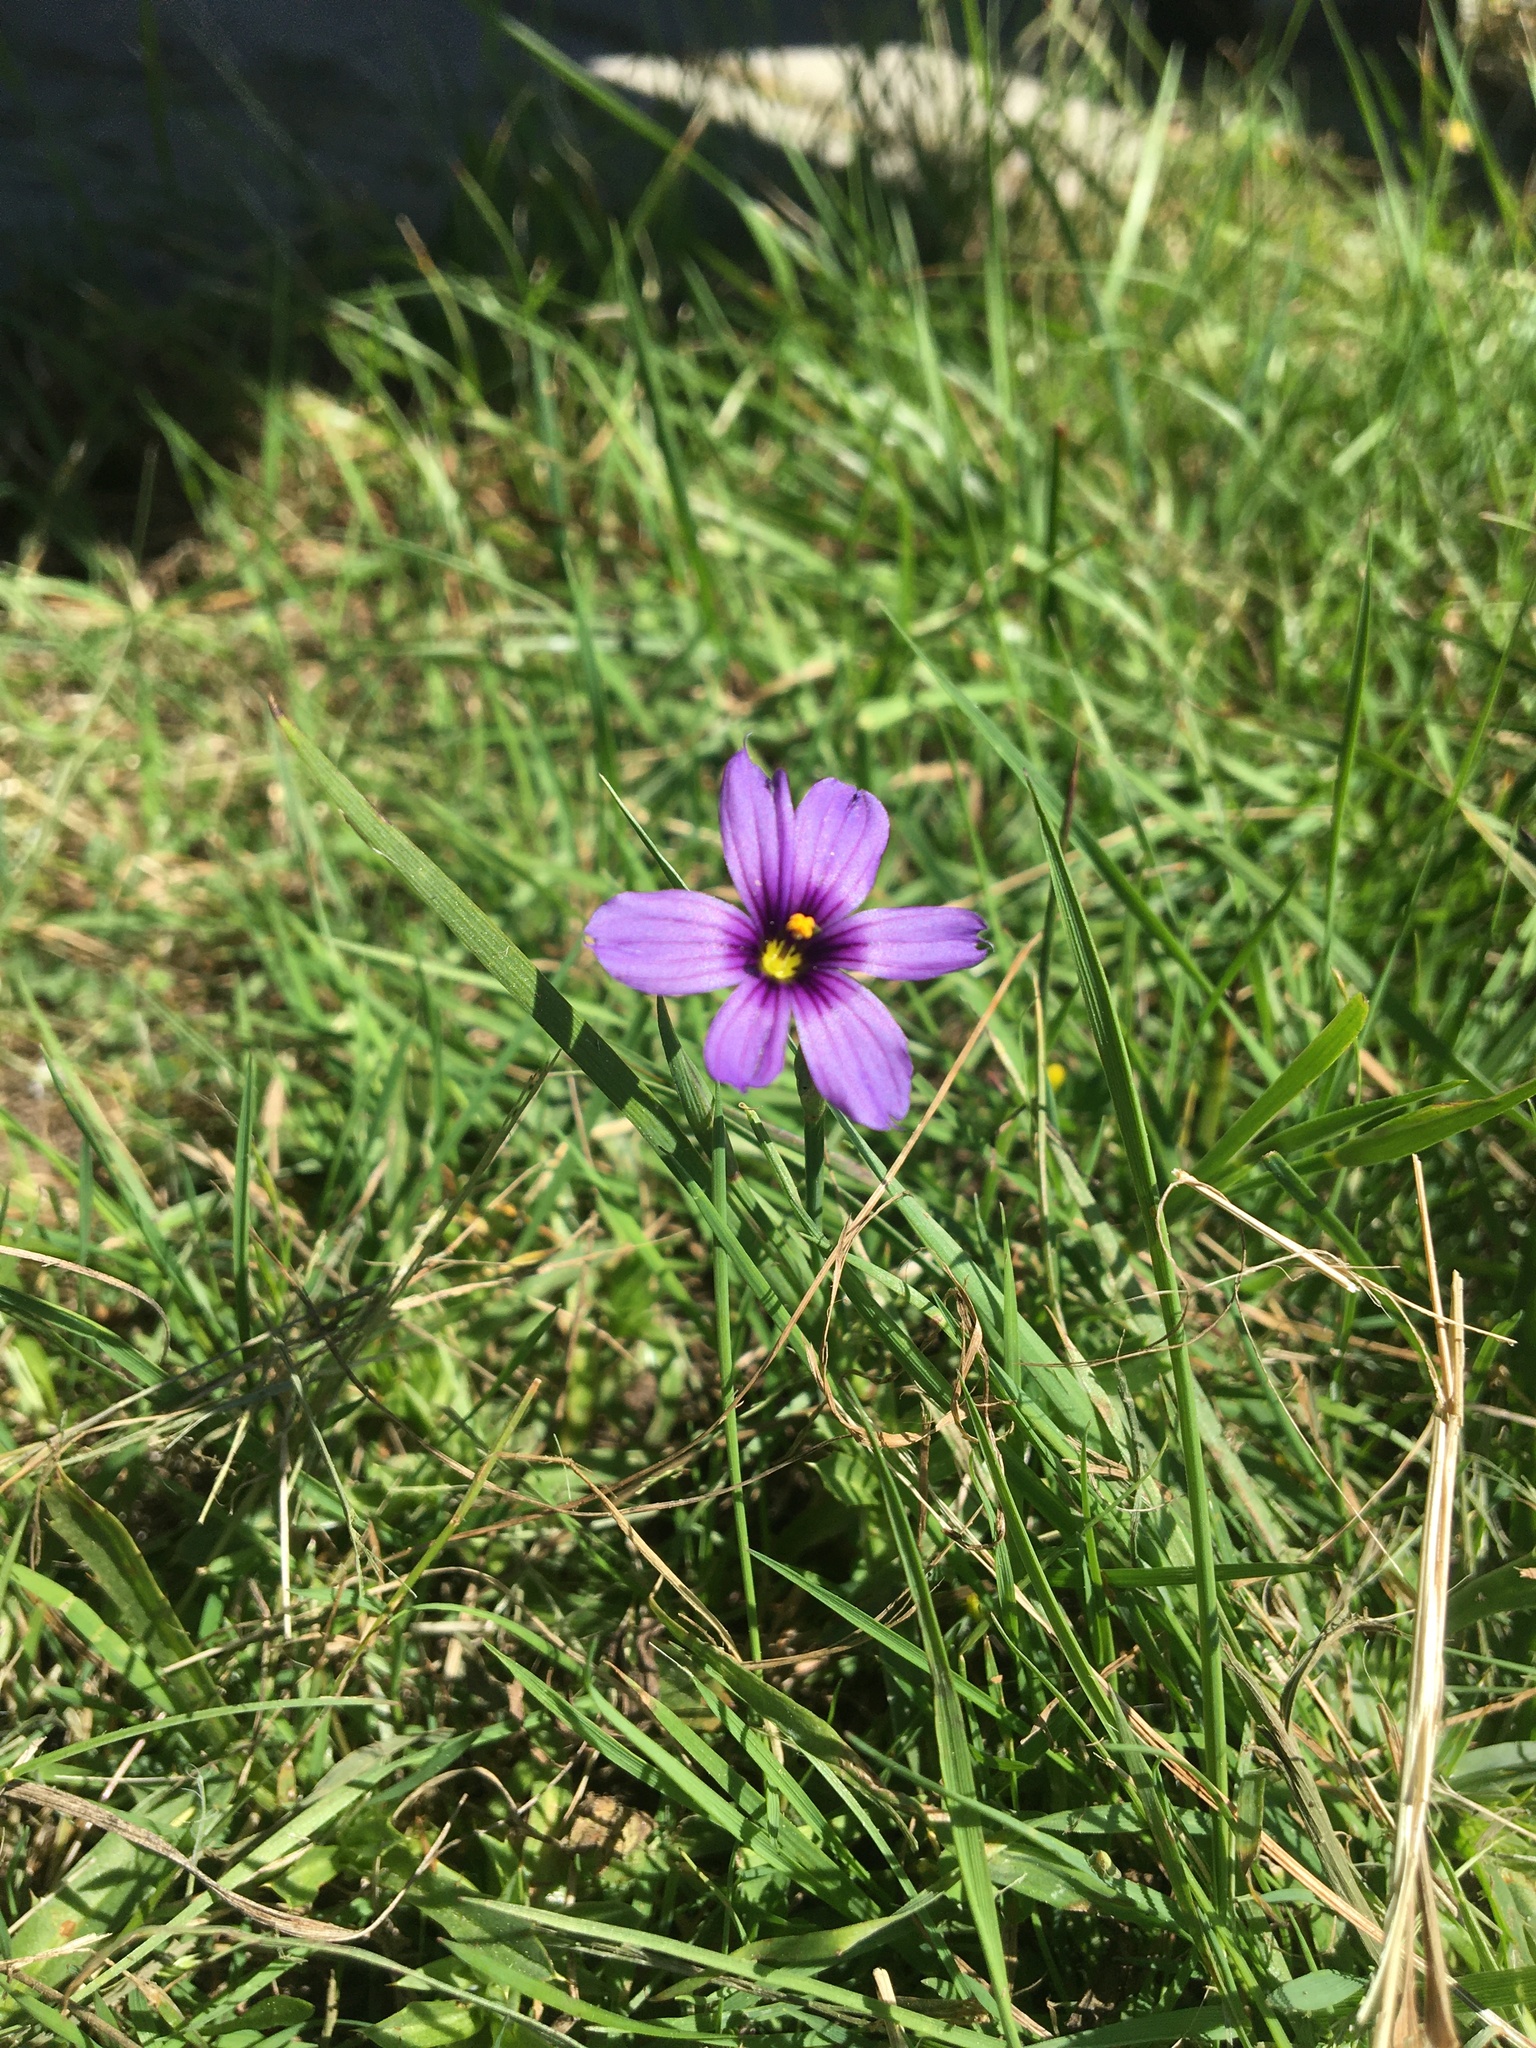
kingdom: Plantae
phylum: Tracheophyta
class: Liliopsida
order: Asparagales
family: Iridaceae
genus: Sisyrinchium
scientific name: Sisyrinchium bellum
